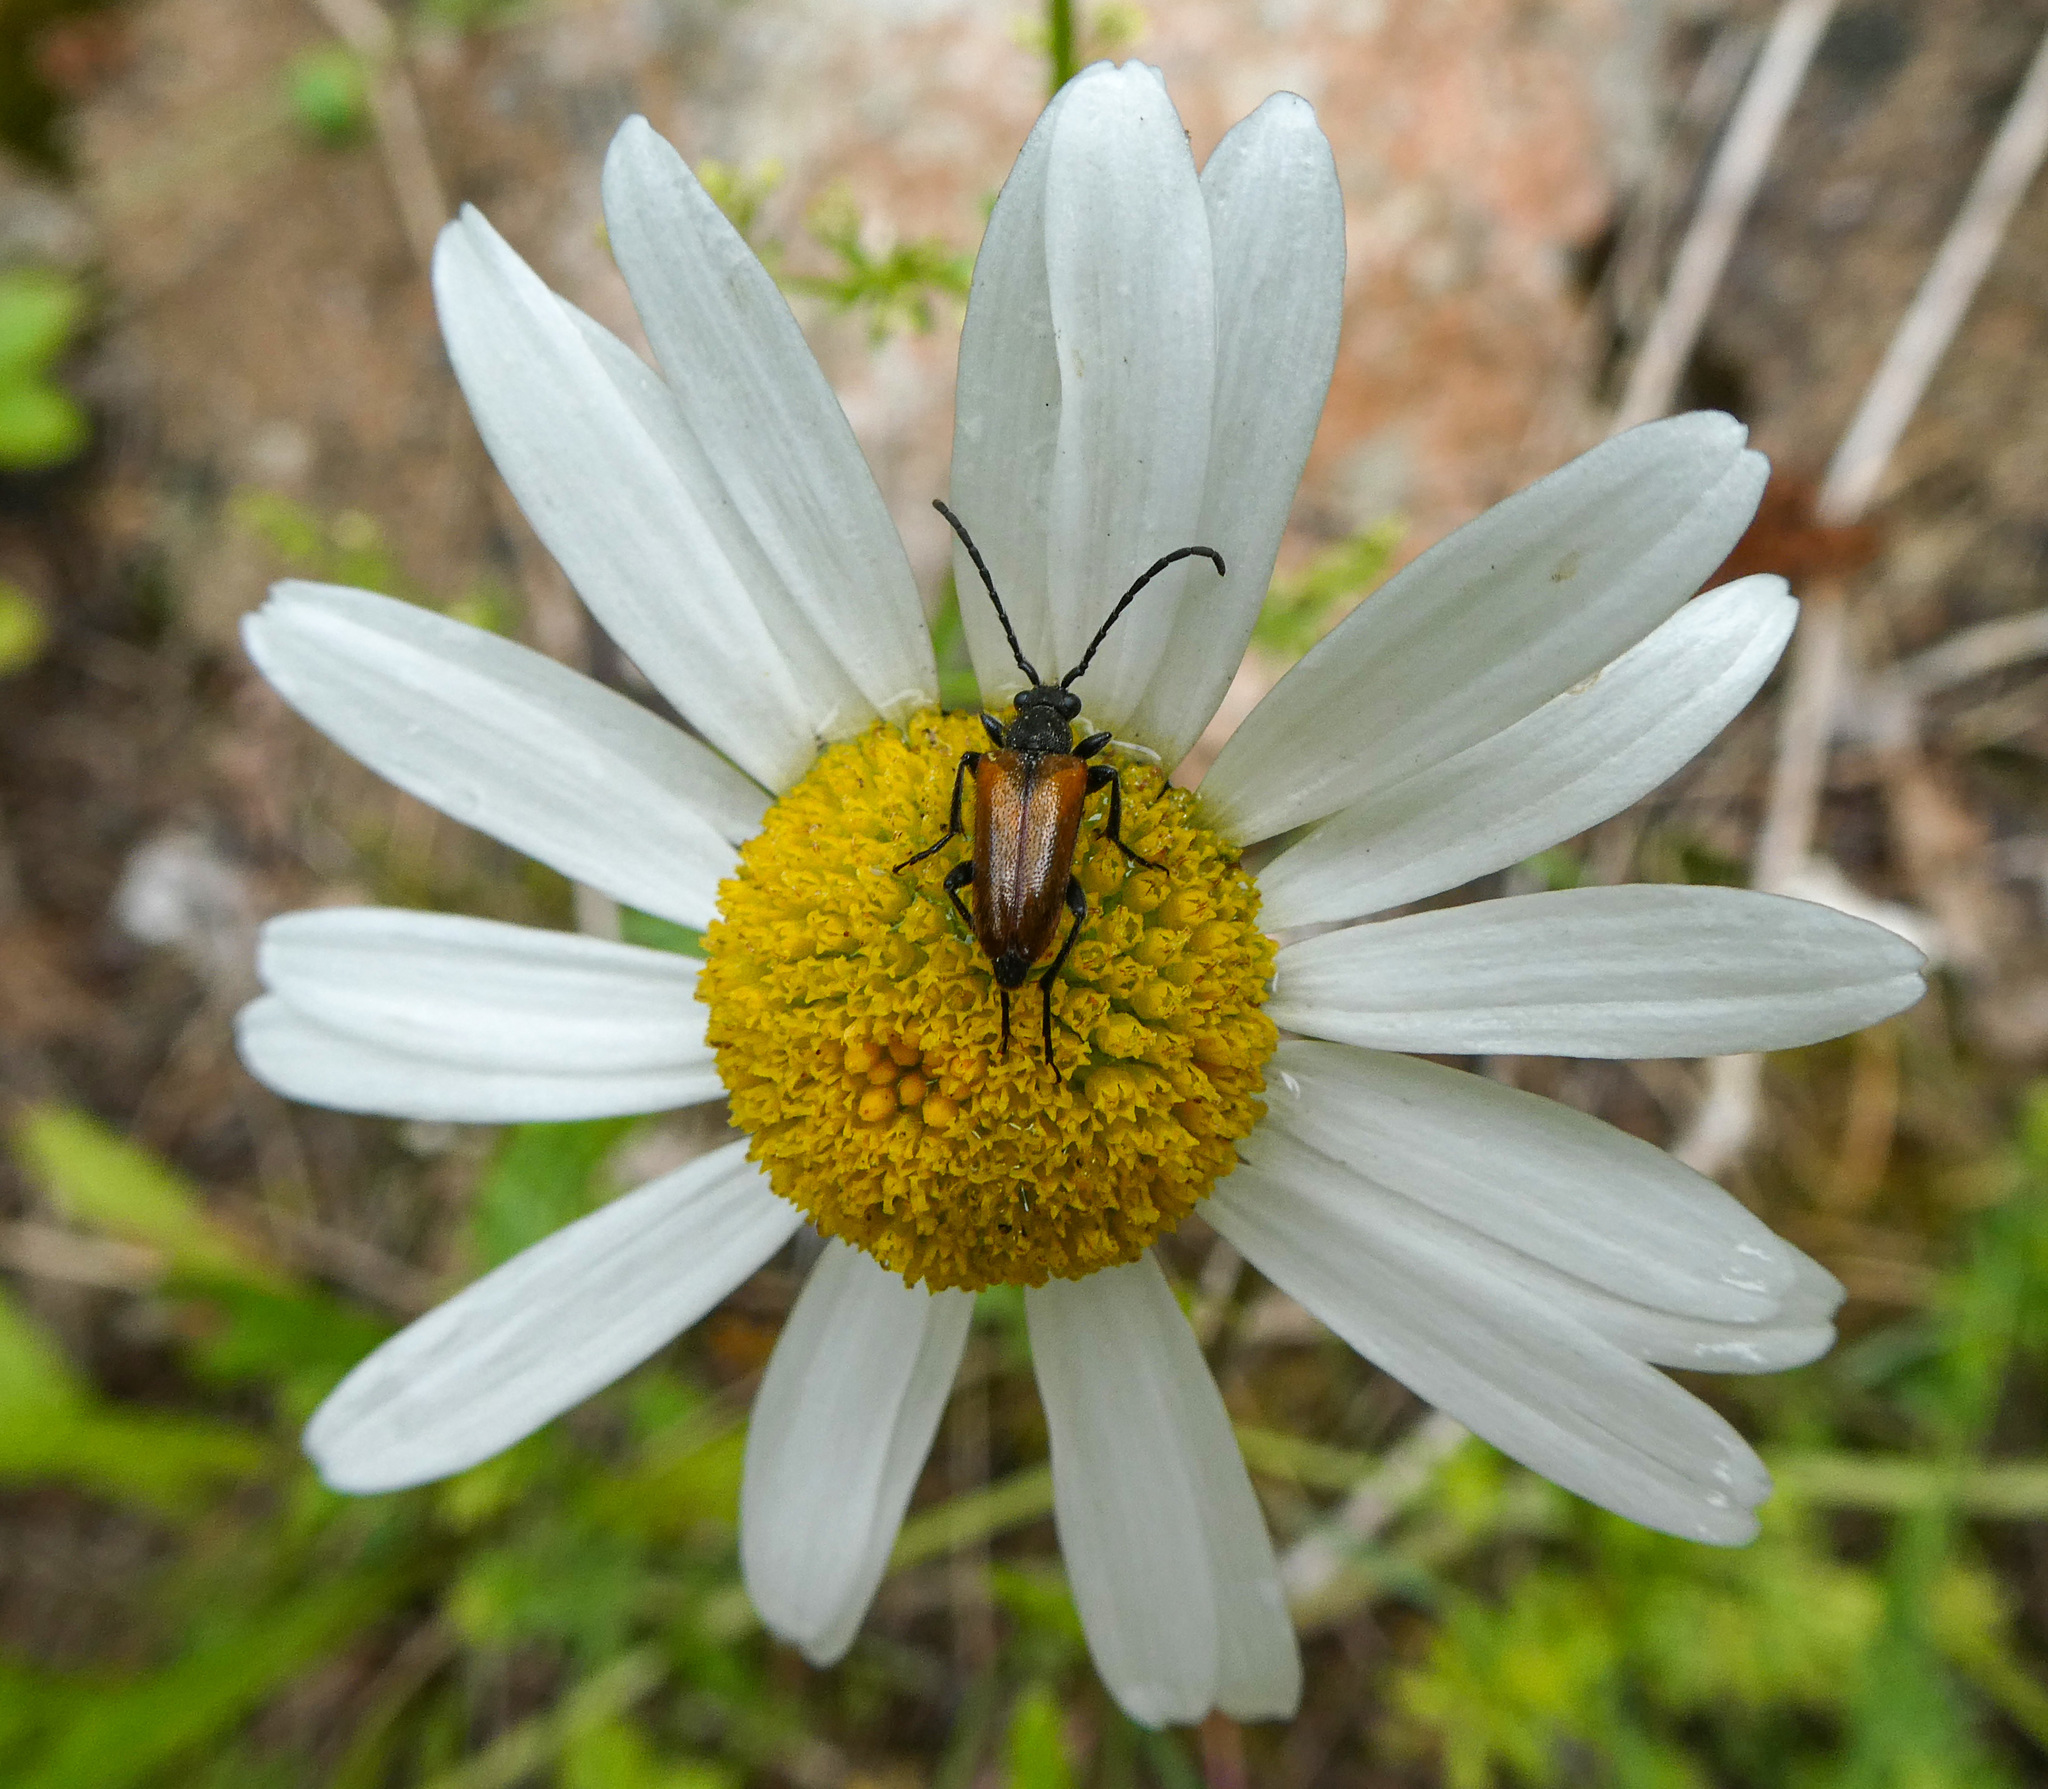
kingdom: Animalia
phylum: Arthropoda
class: Insecta
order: Coleoptera
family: Cerambycidae
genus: Pseudovadonia
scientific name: Pseudovadonia livida
